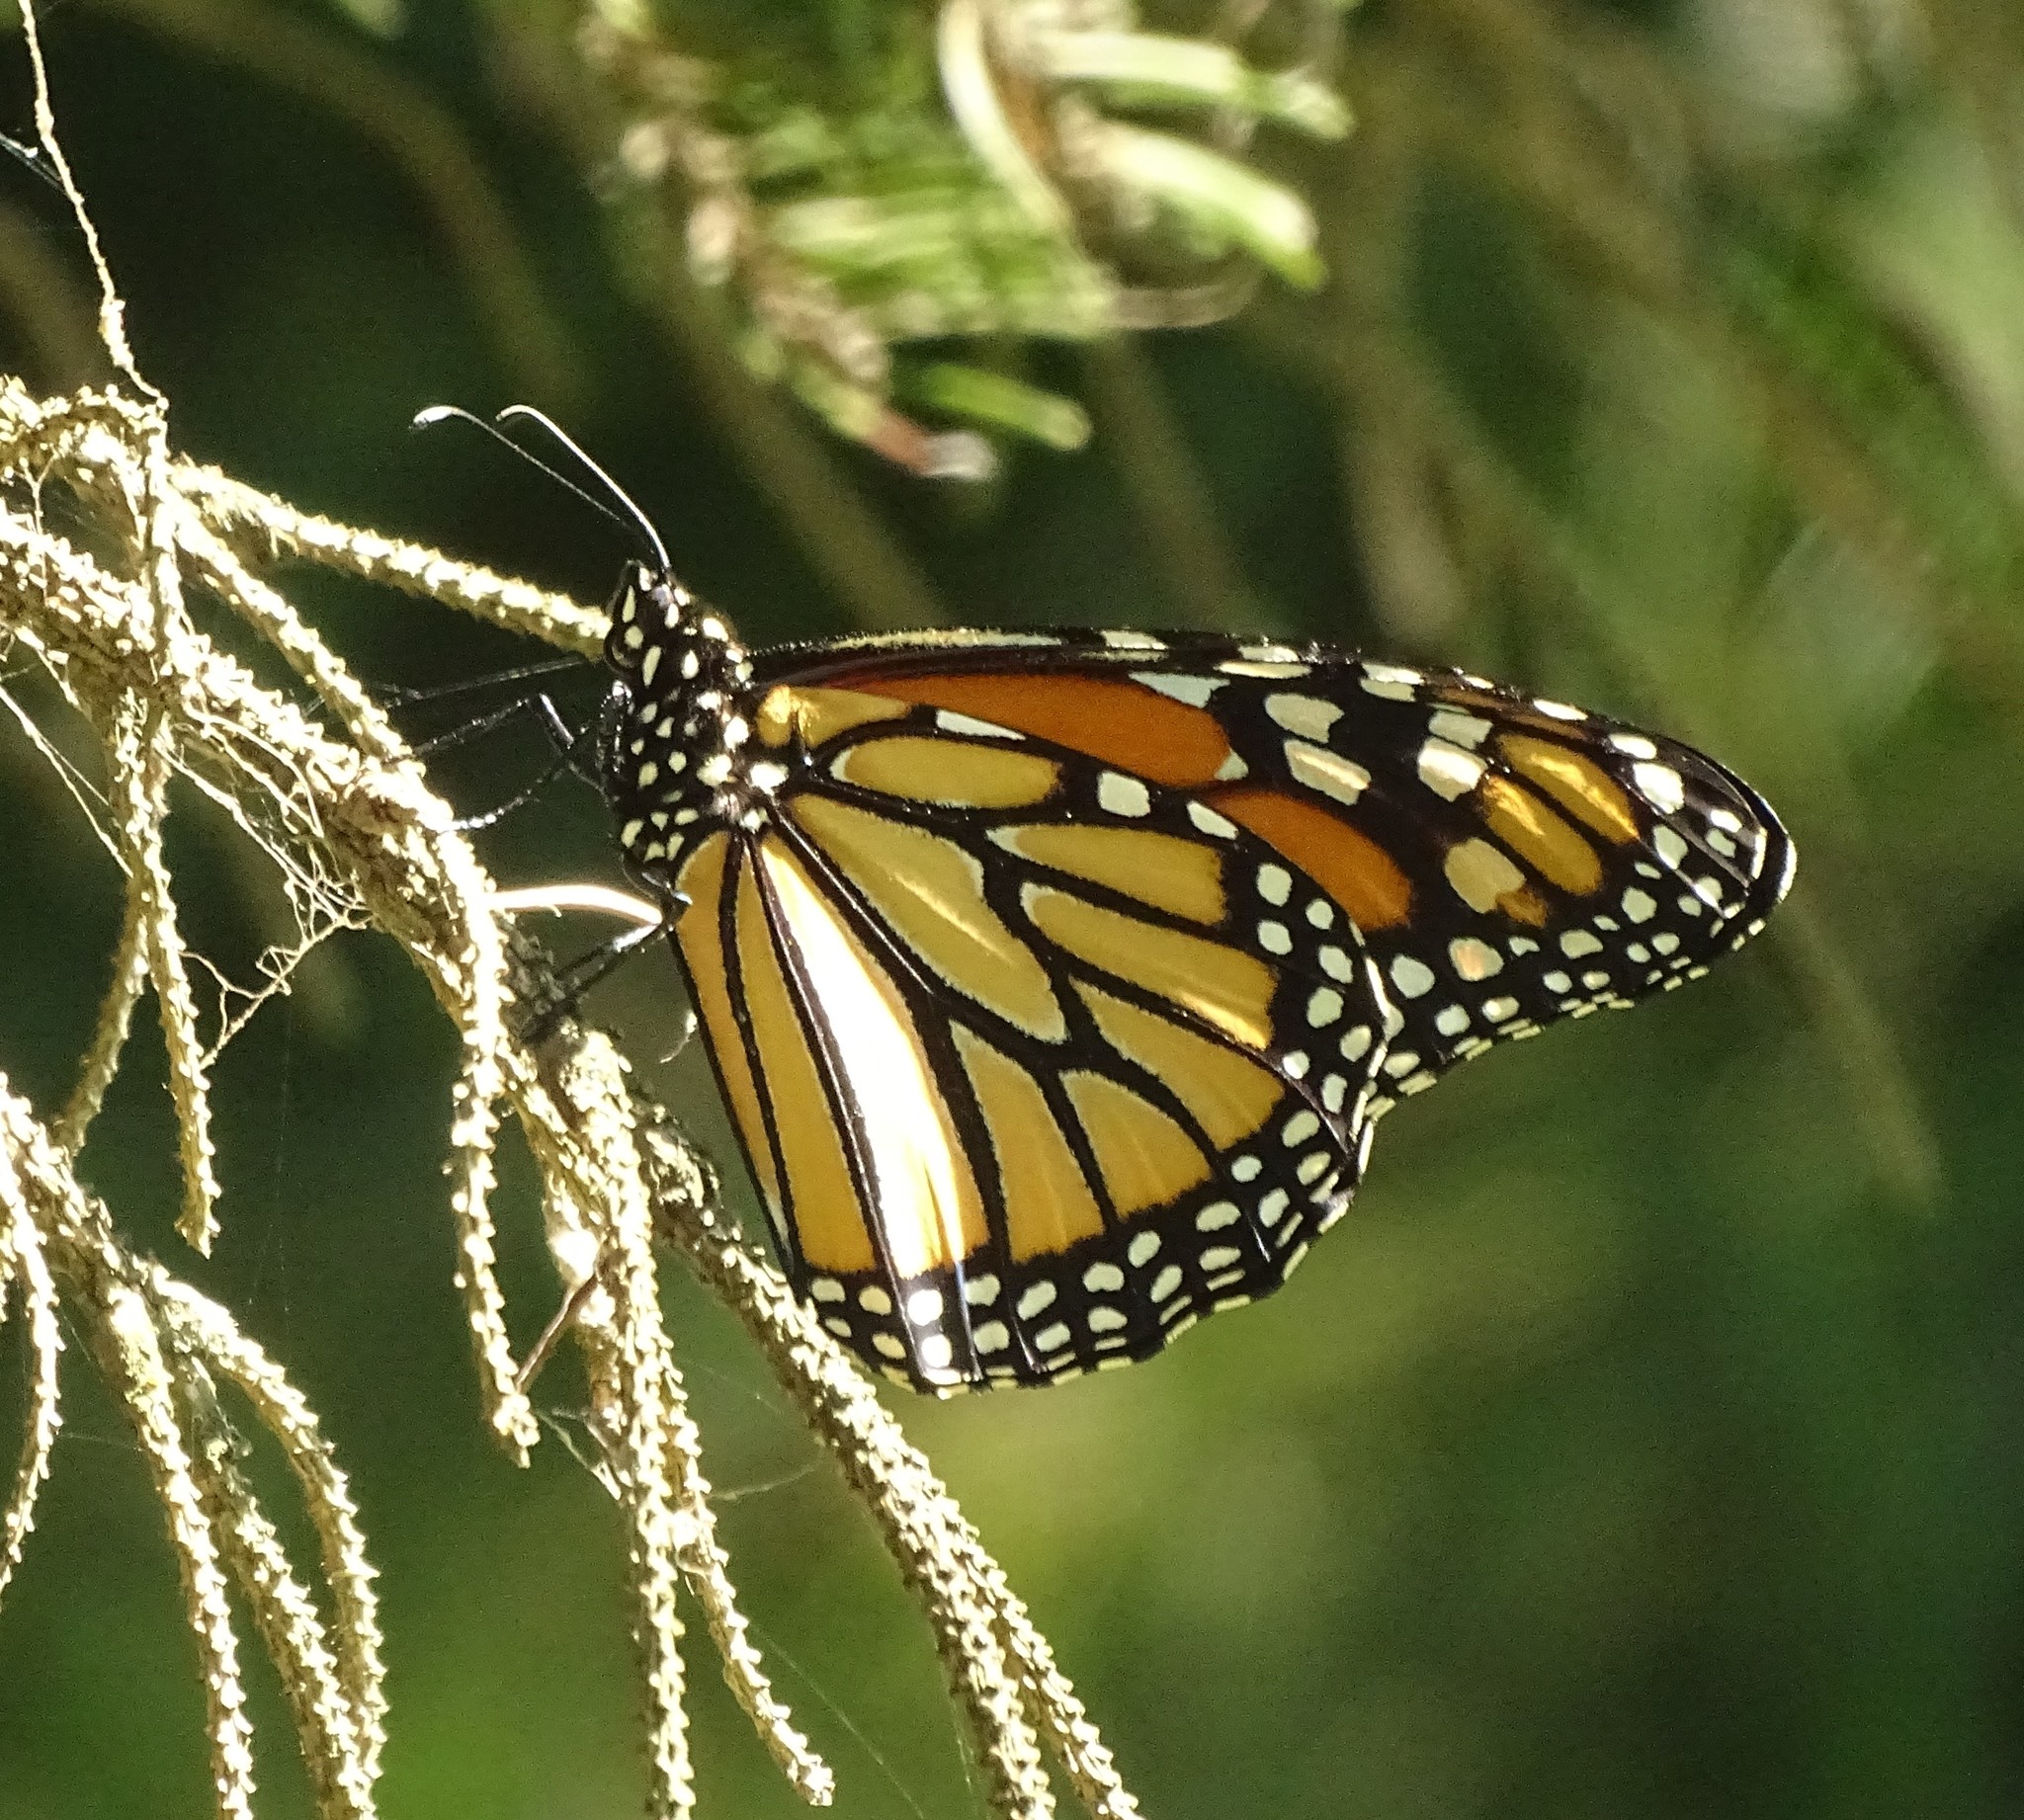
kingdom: Animalia
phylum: Arthropoda
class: Insecta
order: Lepidoptera
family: Nymphalidae
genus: Danaus
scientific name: Danaus plexippus
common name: Monarch
